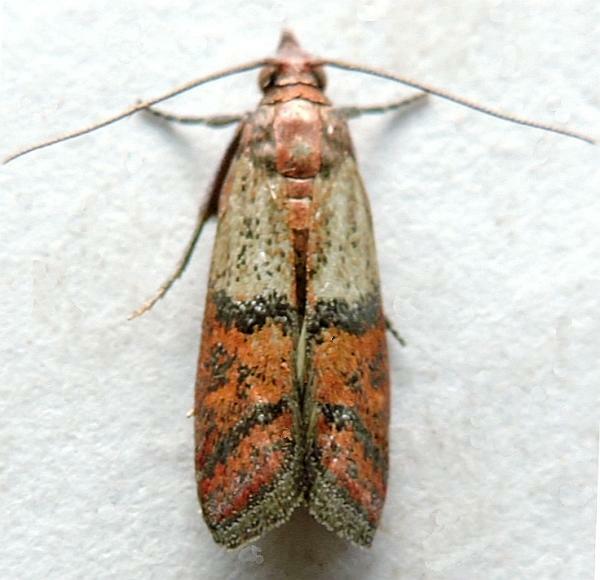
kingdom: Animalia
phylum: Arthropoda
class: Insecta
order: Lepidoptera
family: Pyralidae
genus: Plodia
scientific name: Plodia interpunctella
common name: Indian meal moth
